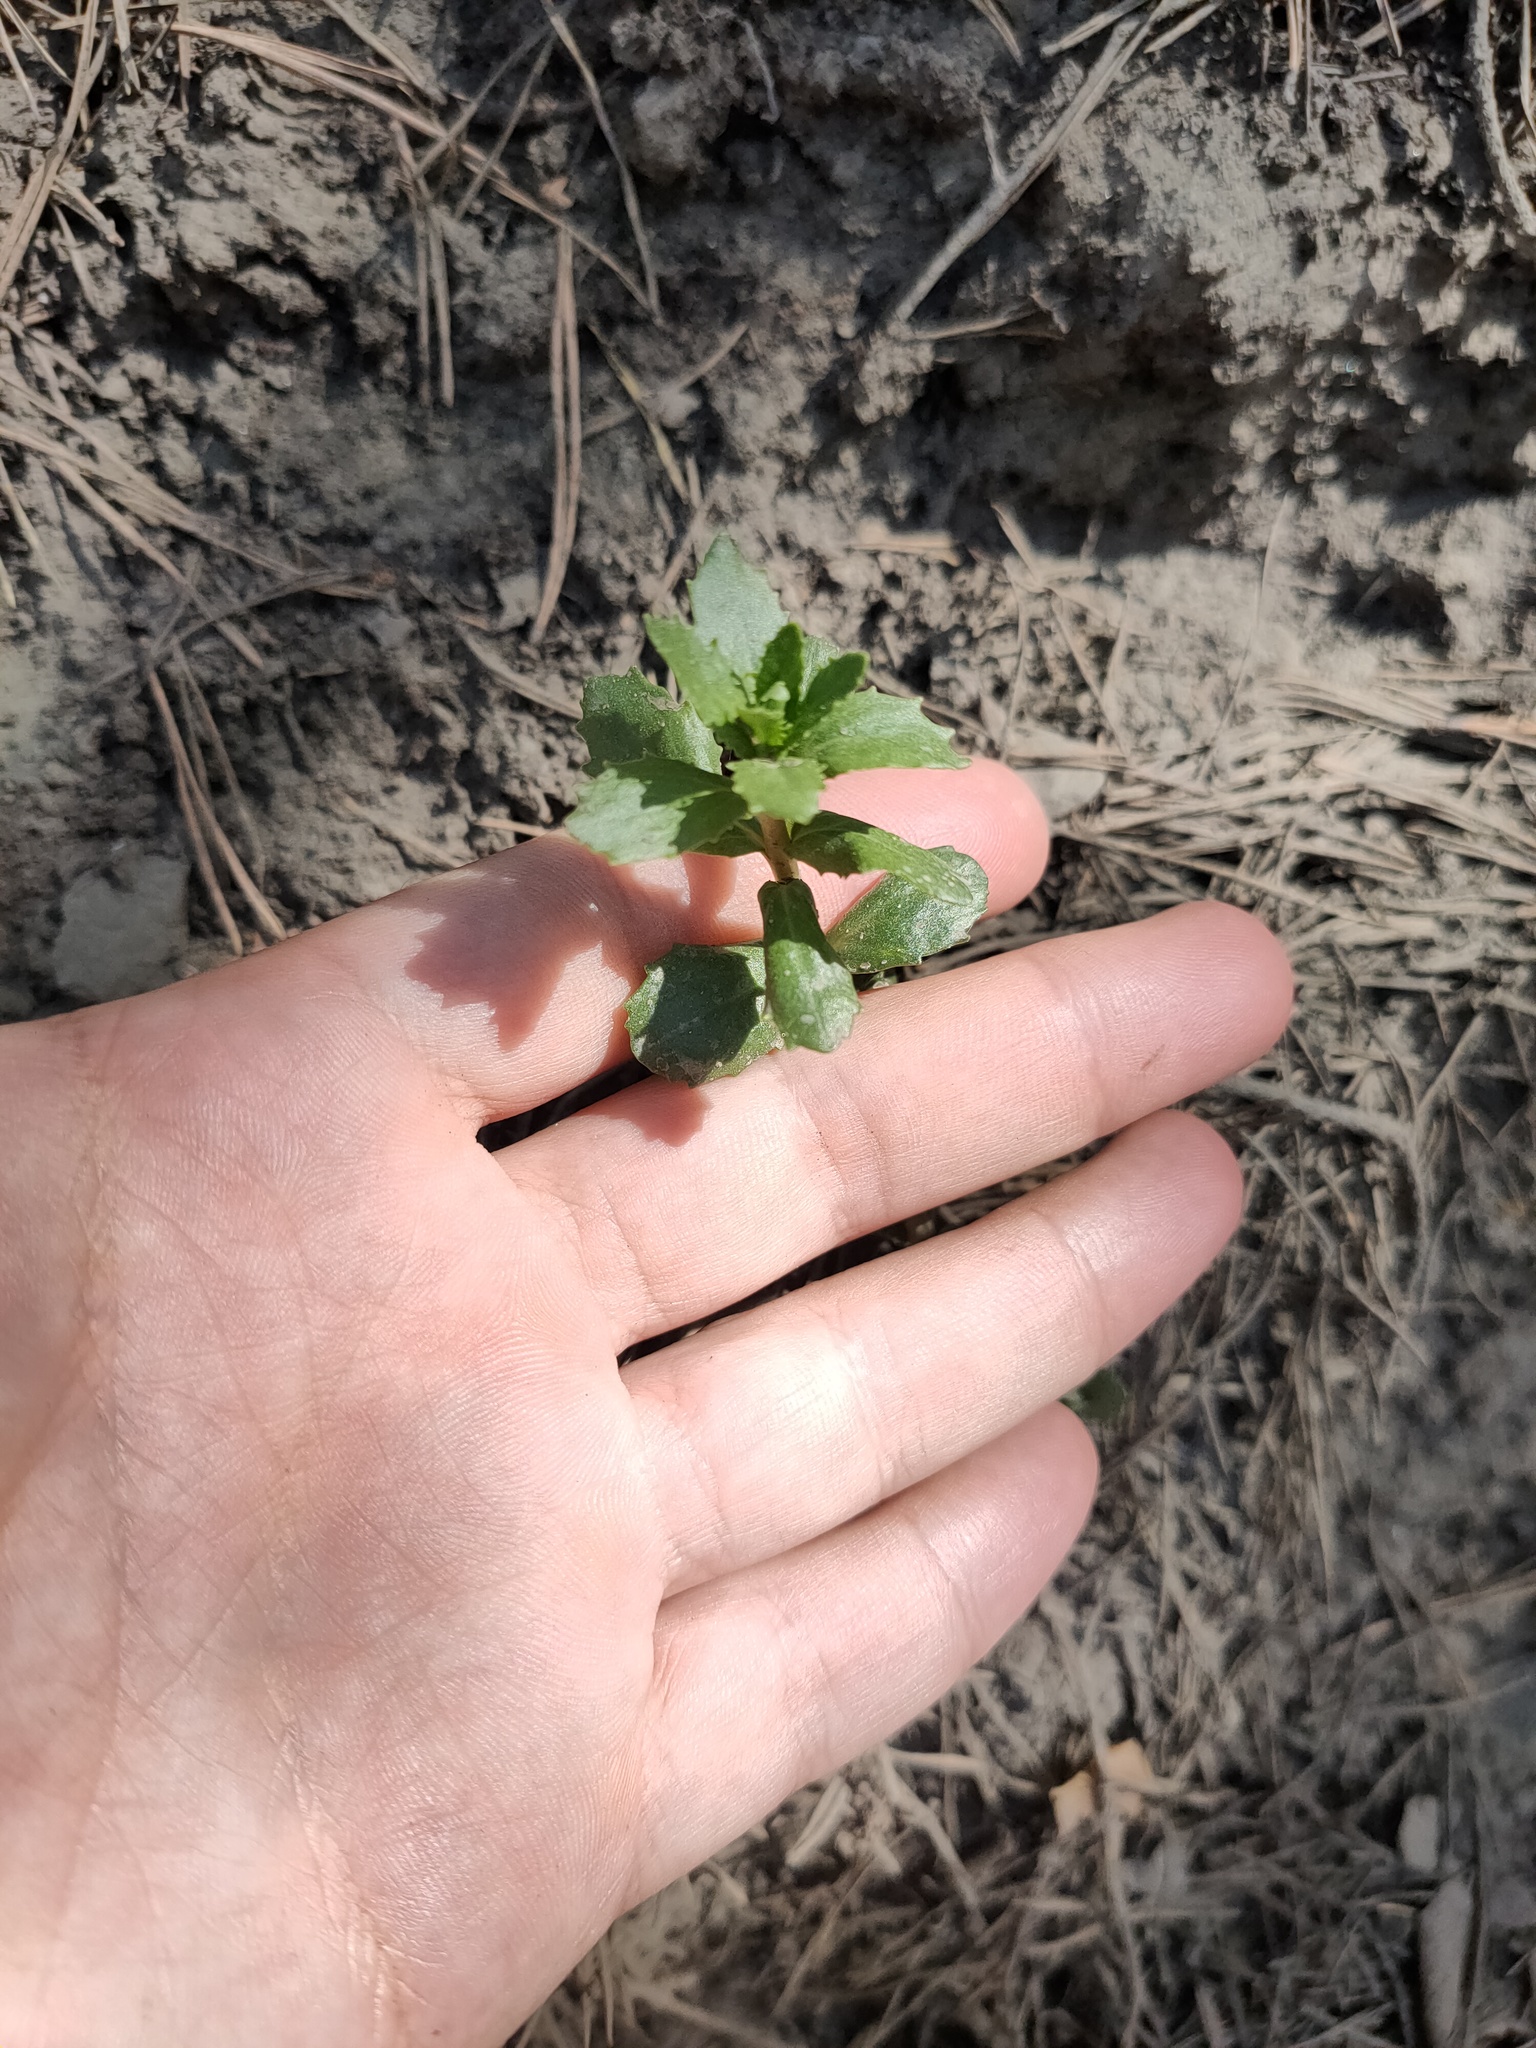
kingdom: Plantae
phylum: Tracheophyta
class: Magnoliopsida
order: Saxifragales
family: Crassulaceae
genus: Hylotelephium
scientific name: Hylotelephium telephium
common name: Live-forever
